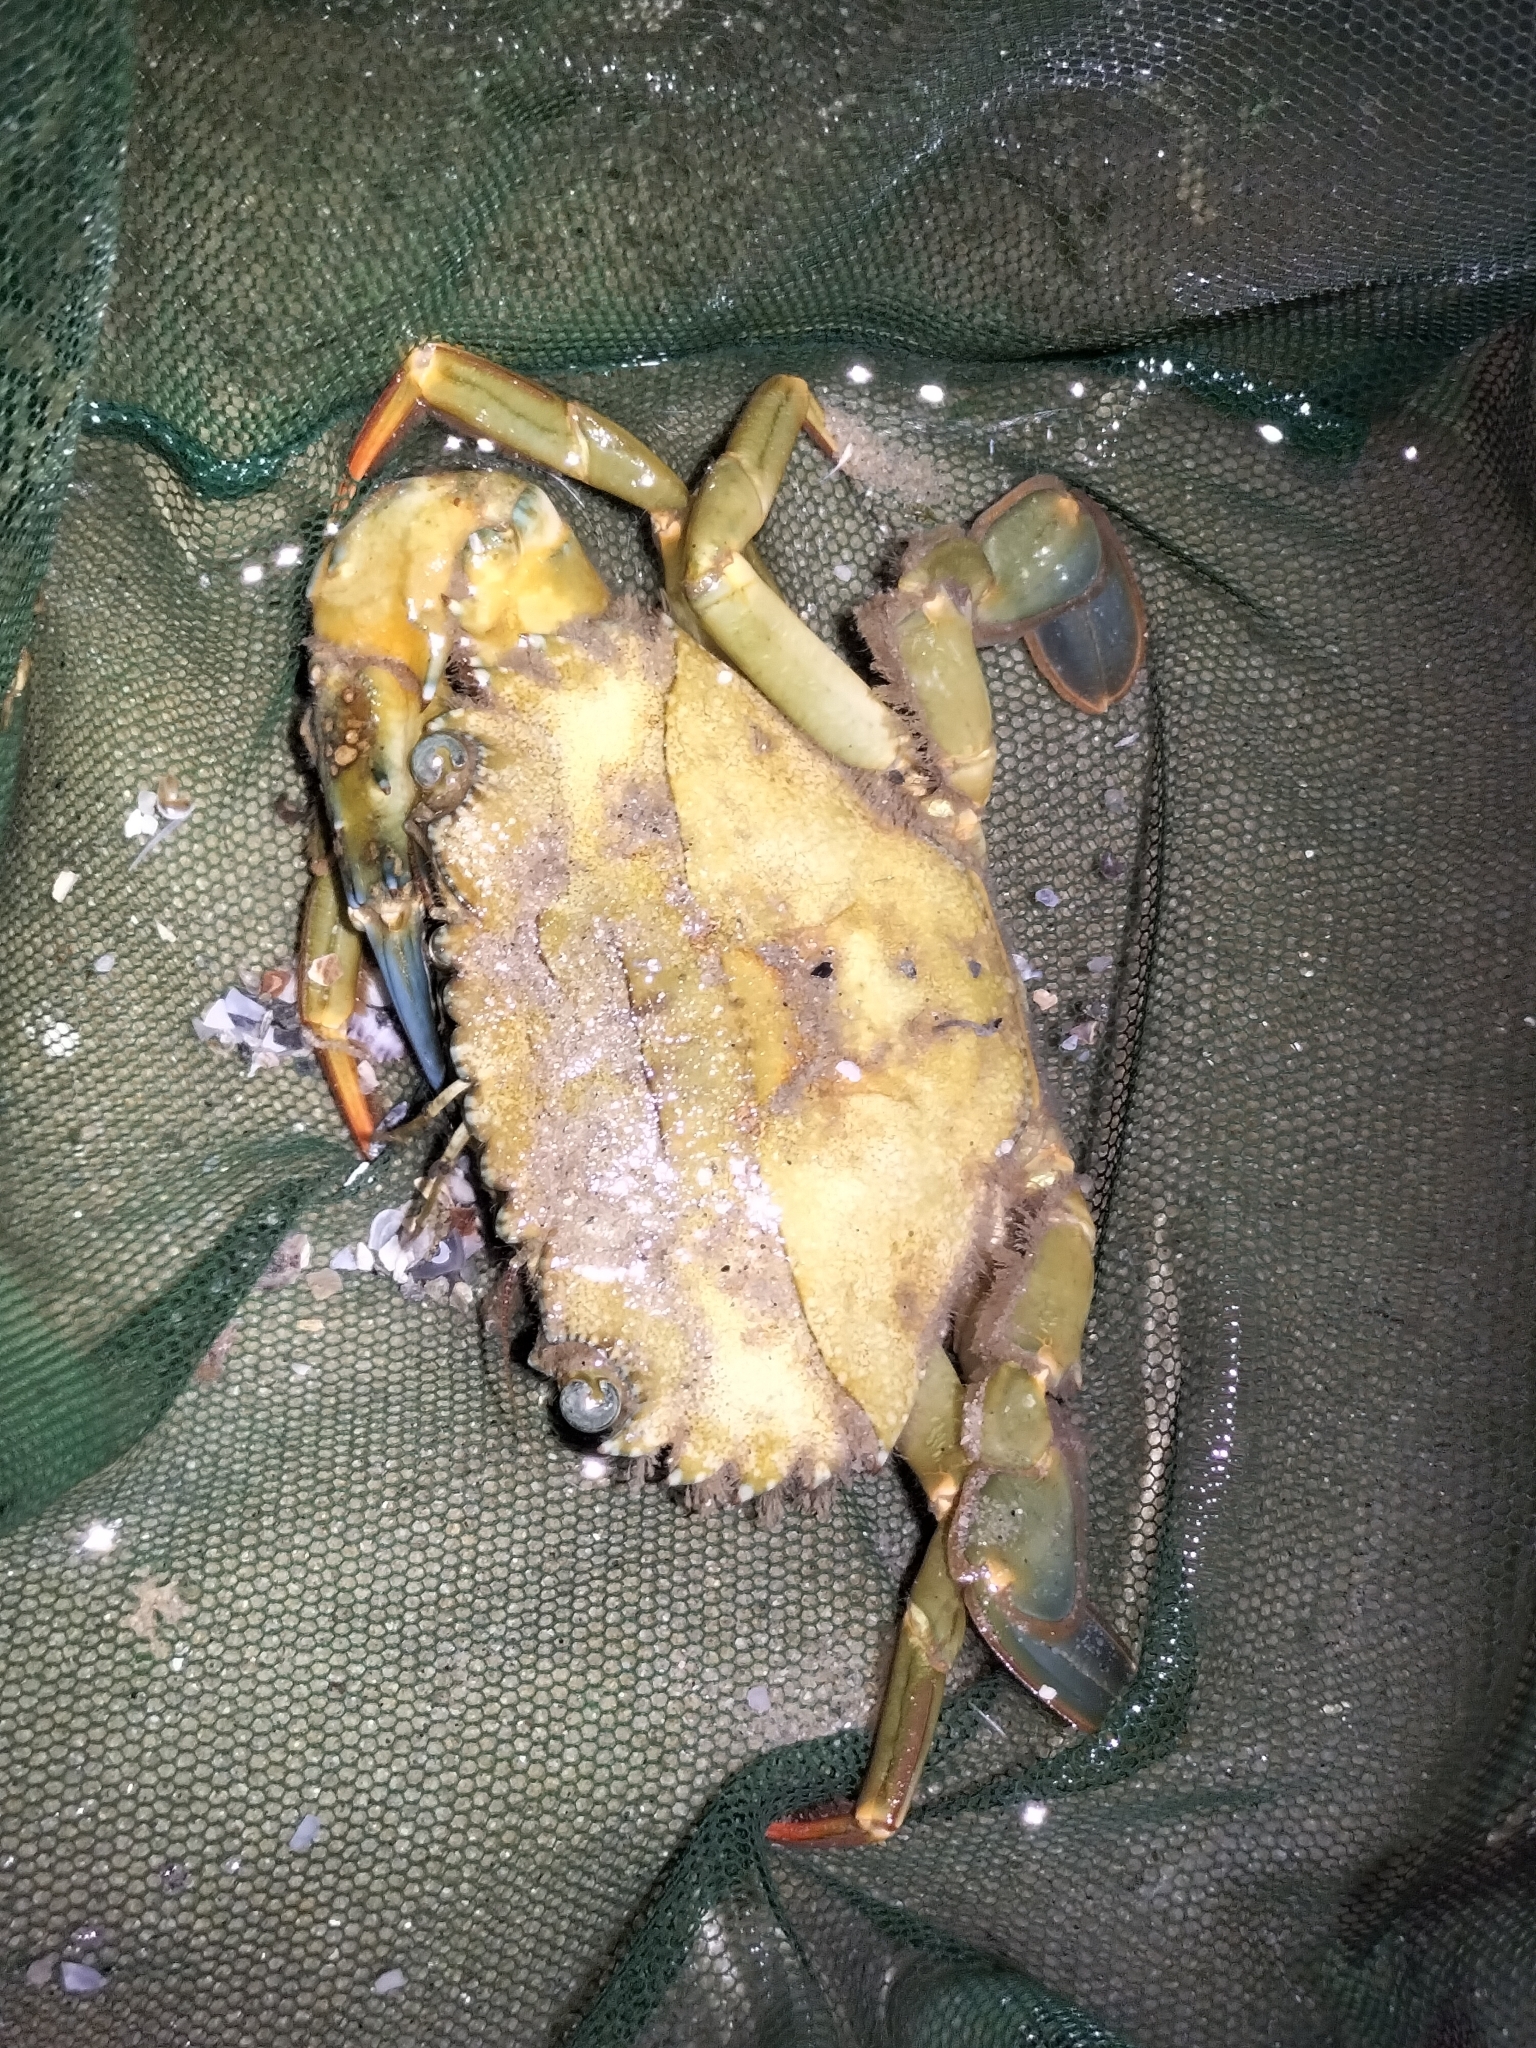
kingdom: Animalia
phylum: Arthropoda
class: Malacostraca
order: Decapoda
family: Portunidae
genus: Thalamita
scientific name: Thalamita crenata
